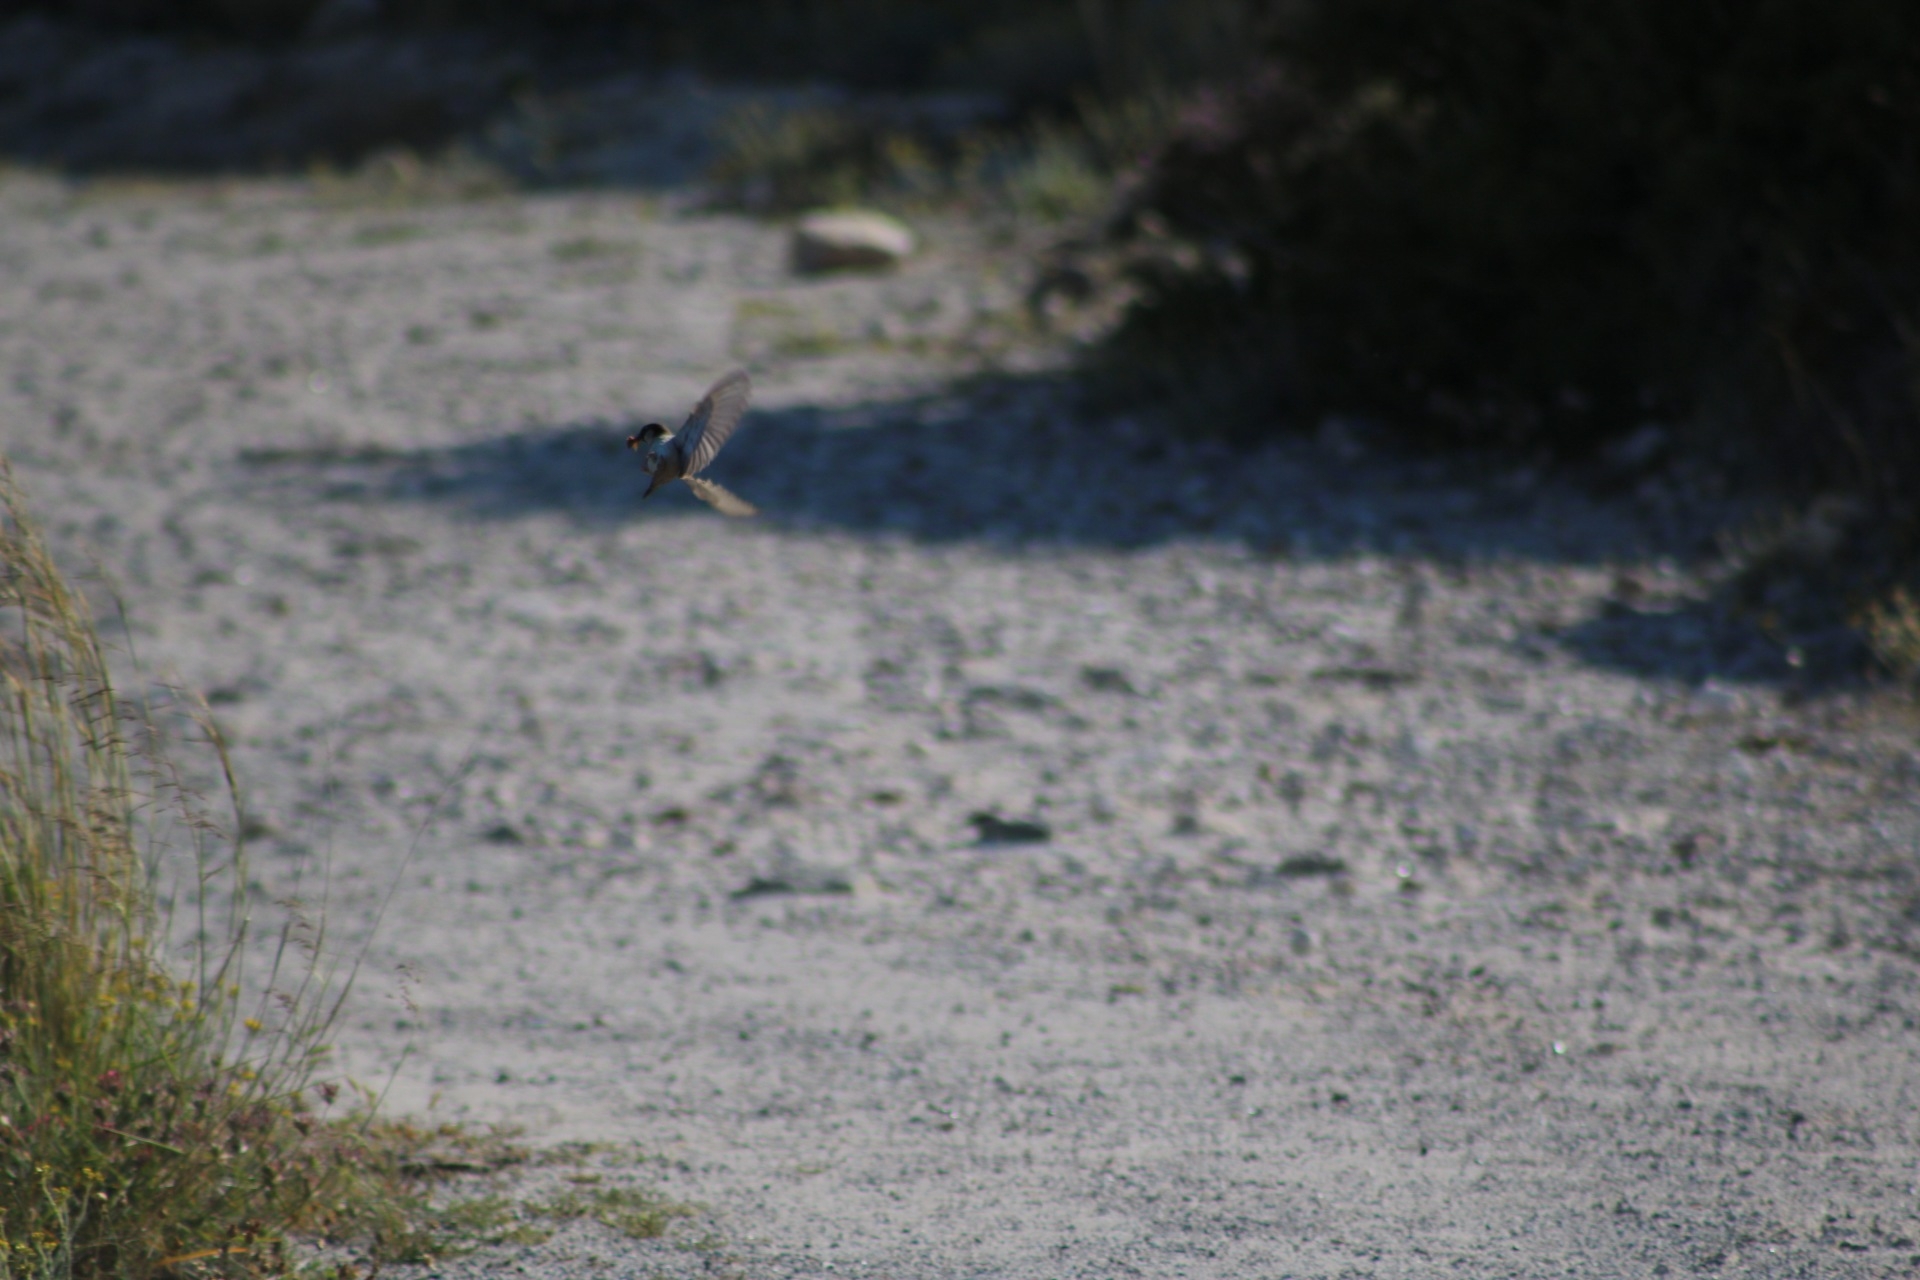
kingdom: Animalia
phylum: Chordata
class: Aves
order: Passeriformes
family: Passeridae
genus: Passer
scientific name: Passer domesticus
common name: House sparrow
